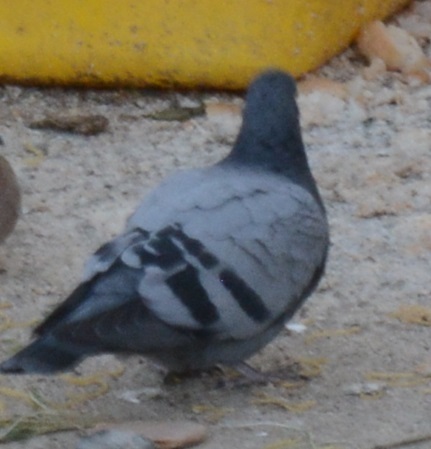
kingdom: Animalia
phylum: Chordata
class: Aves
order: Columbiformes
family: Columbidae
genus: Columba
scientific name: Columba livia
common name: Rock pigeon
